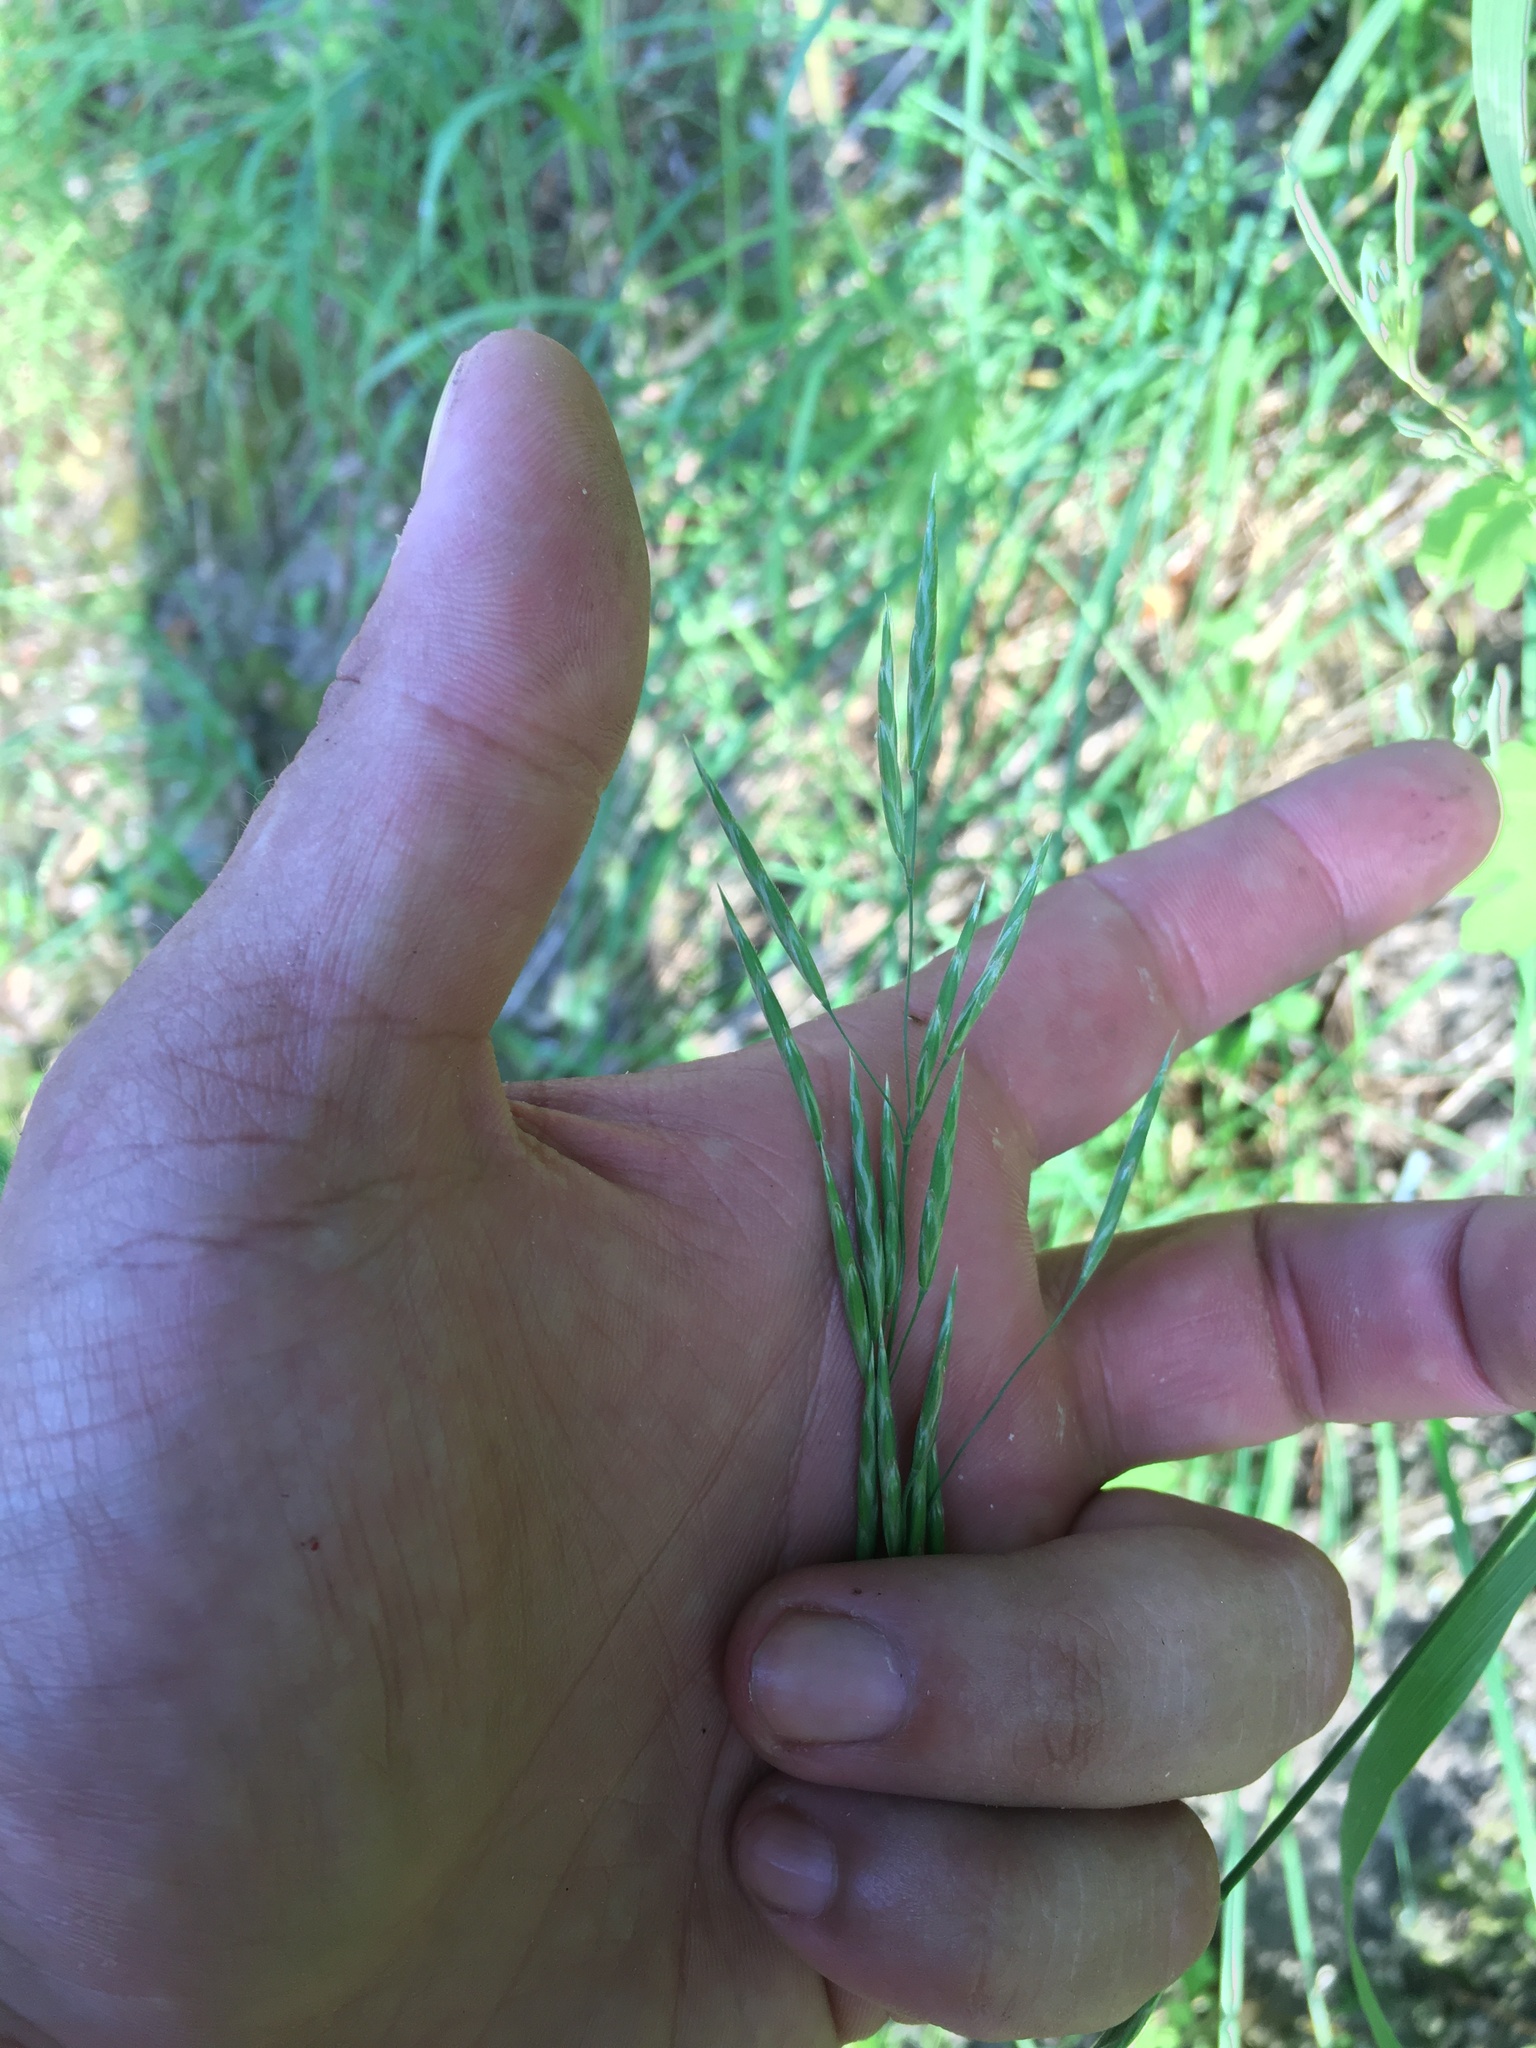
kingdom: Plantae
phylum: Tracheophyta
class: Liliopsida
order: Poales
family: Poaceae
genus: Bromus
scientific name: Bromus inermis
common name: Smooth brome
